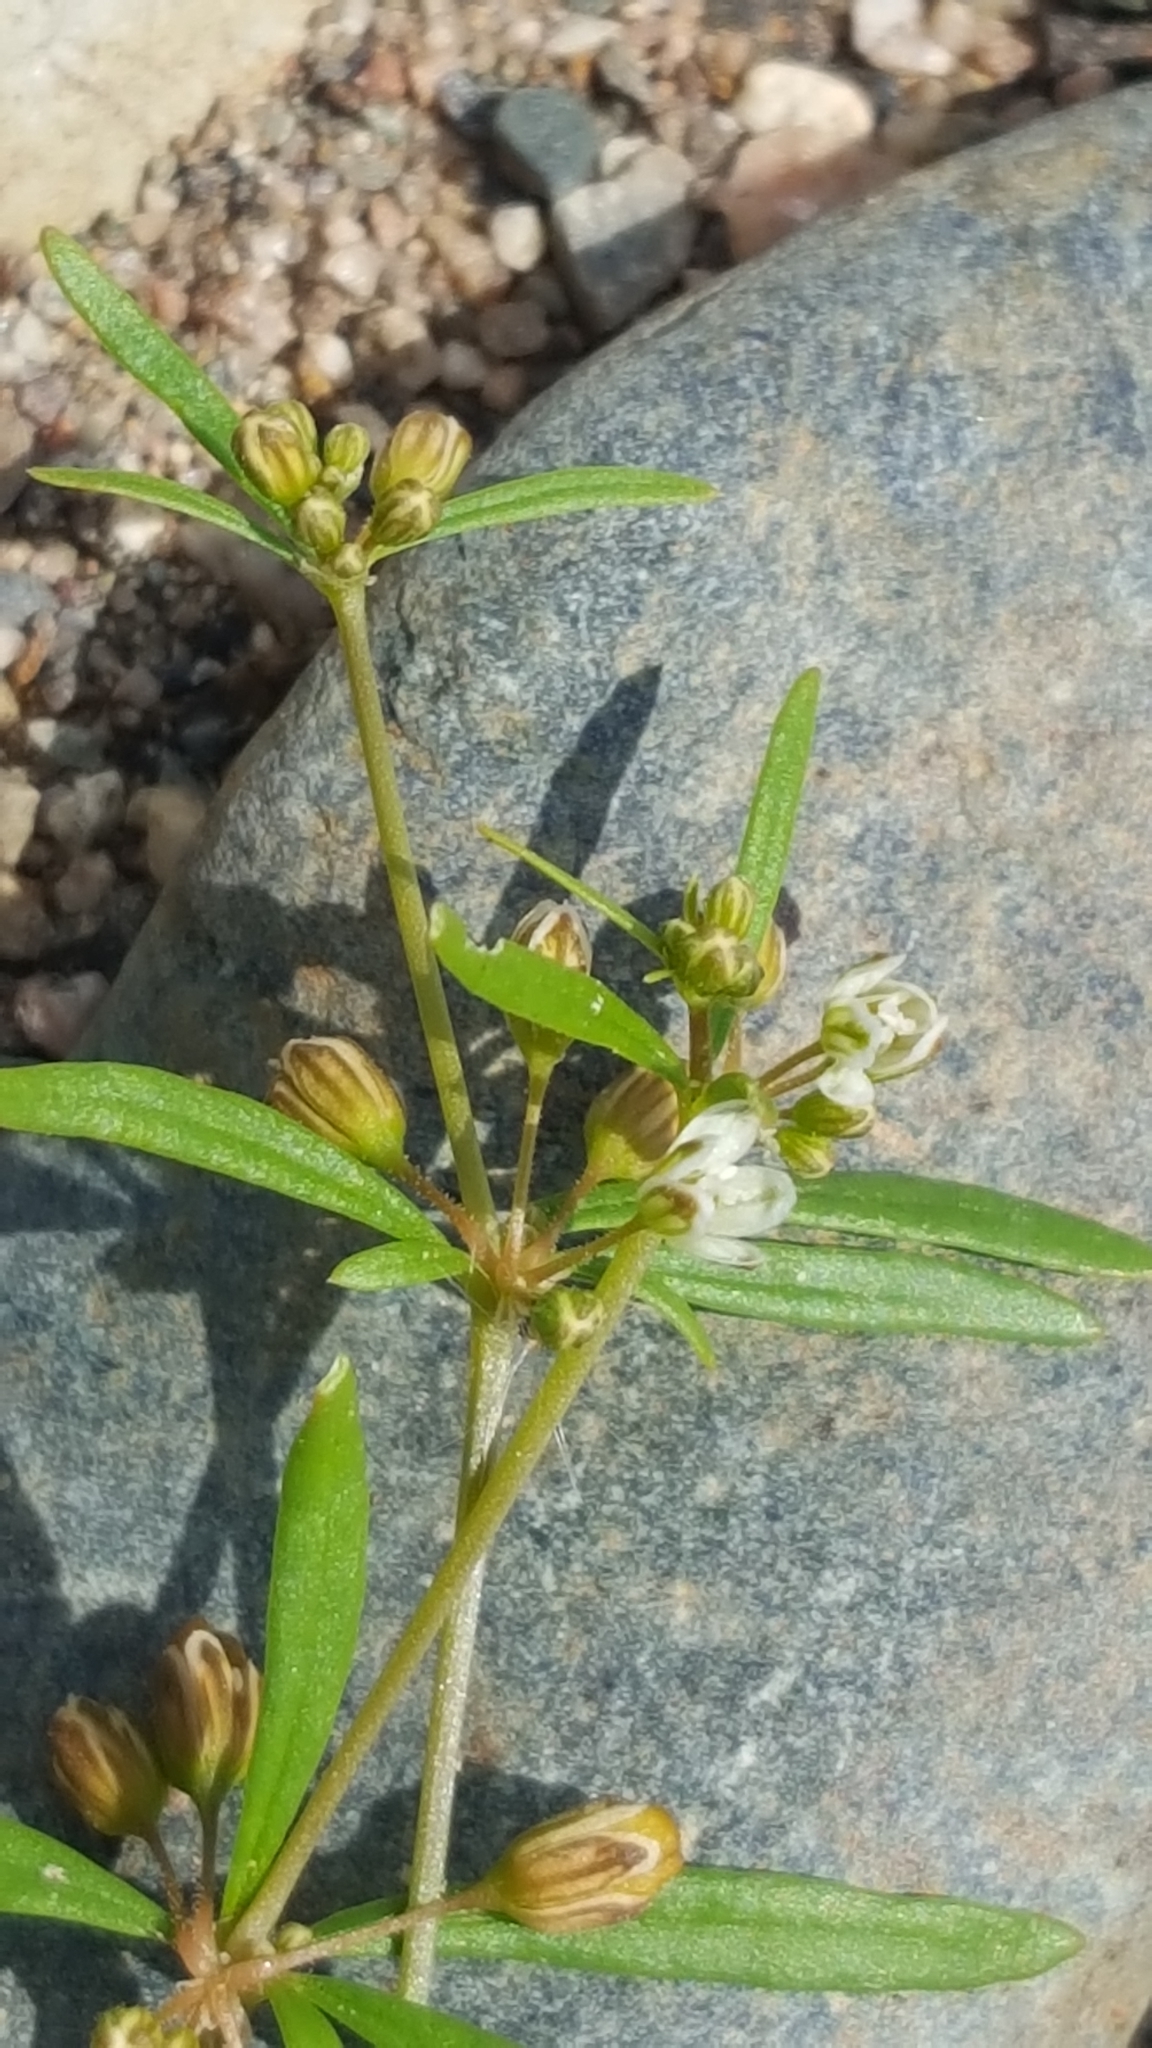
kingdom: Plantae
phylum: Tracheophyta
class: Magnoliopsida
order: Caryophyllales
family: Molluginaceae
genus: Mollugo
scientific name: Mollugo verticillata
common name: Green carpetweed
